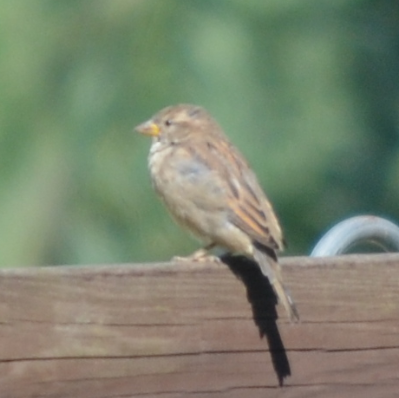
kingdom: Animalia
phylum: Chordata
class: Aves
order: Passeriformes
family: Passeridae
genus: Passer
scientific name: Passer domesticus
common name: House sparrow
